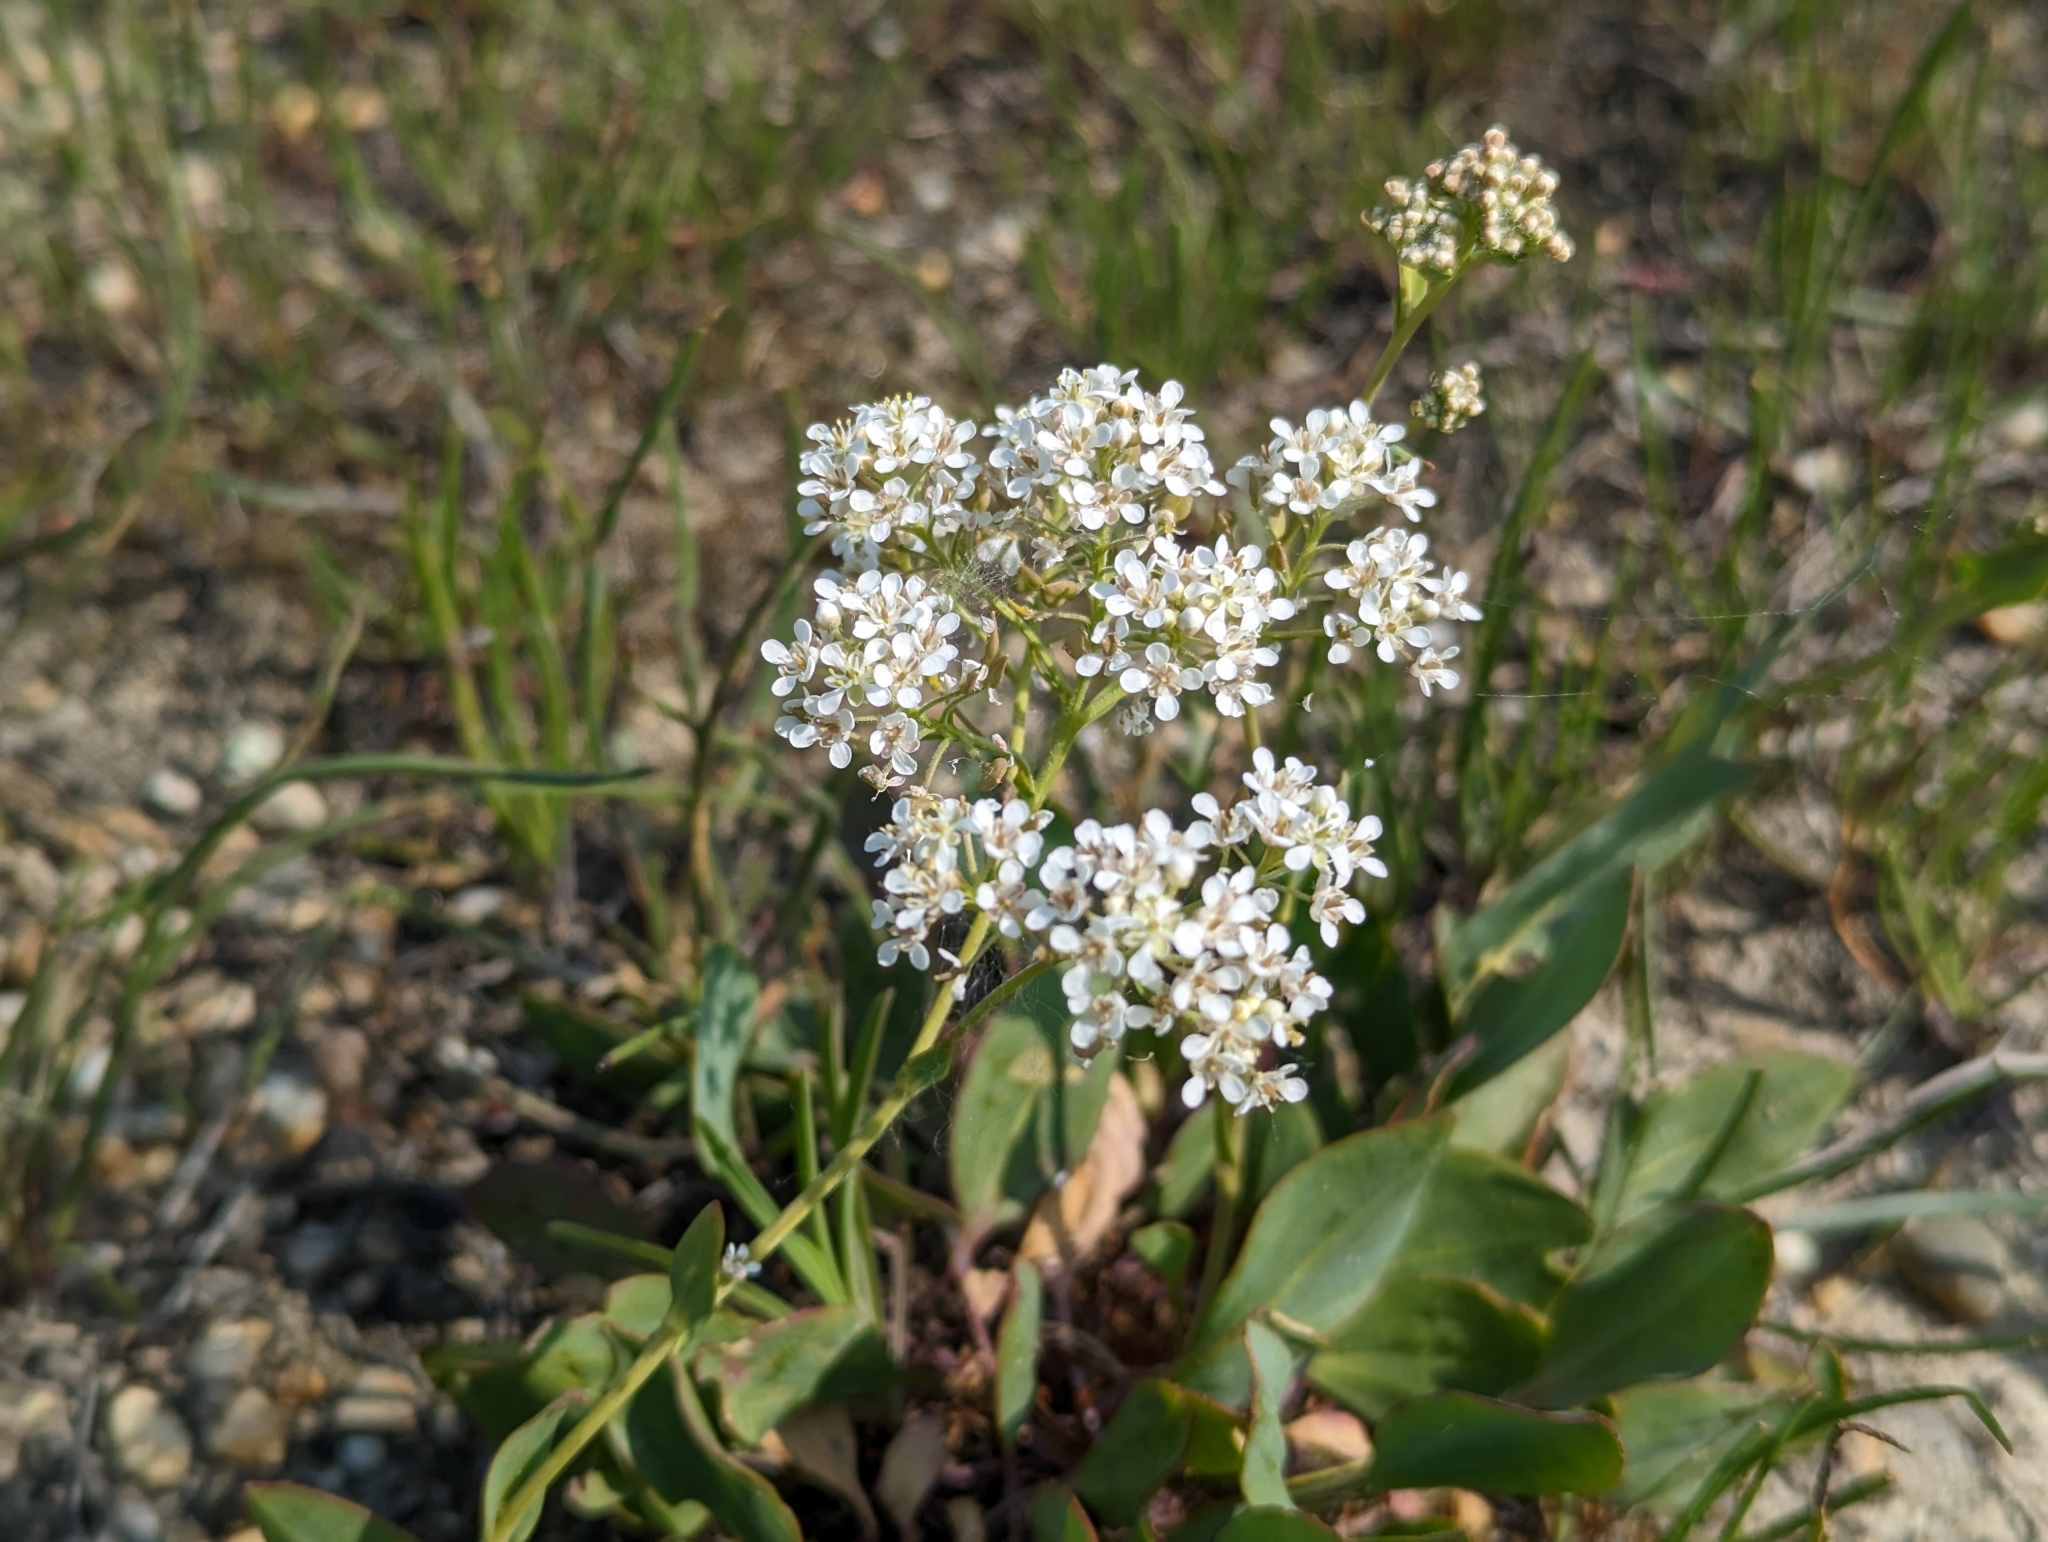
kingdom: Plantae
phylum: Tracheophyta
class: Magnoliopsida
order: Brassicales
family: Brassicaceae
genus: Lepidium
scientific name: Lepidium cartilagineum
